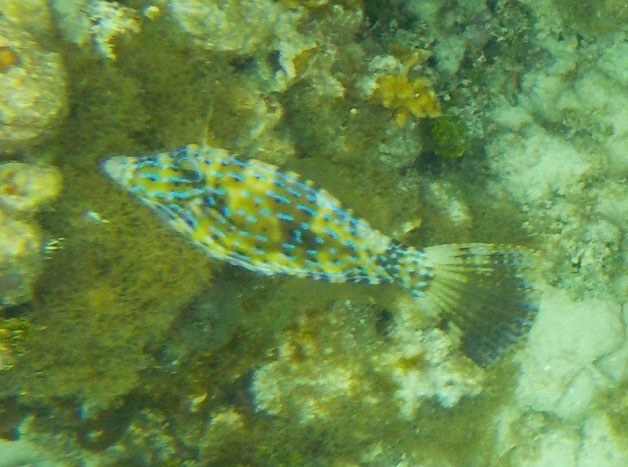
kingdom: Animalia
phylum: Chordata
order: Tetraodontiformes
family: Monacanthidae
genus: Aluterus
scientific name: Aluterus scriptus
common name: Scribbled leatherjacket filefish
